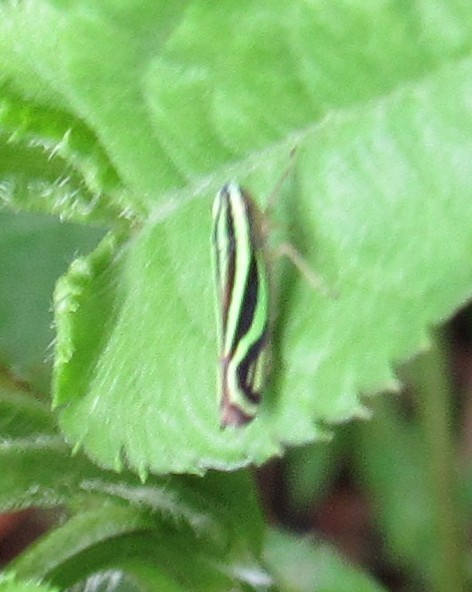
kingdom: Animalia
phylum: Arthropoda
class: Insecta
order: Hemiptera
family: Cicadellidae
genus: Sibovia
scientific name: Sibovia sagata
